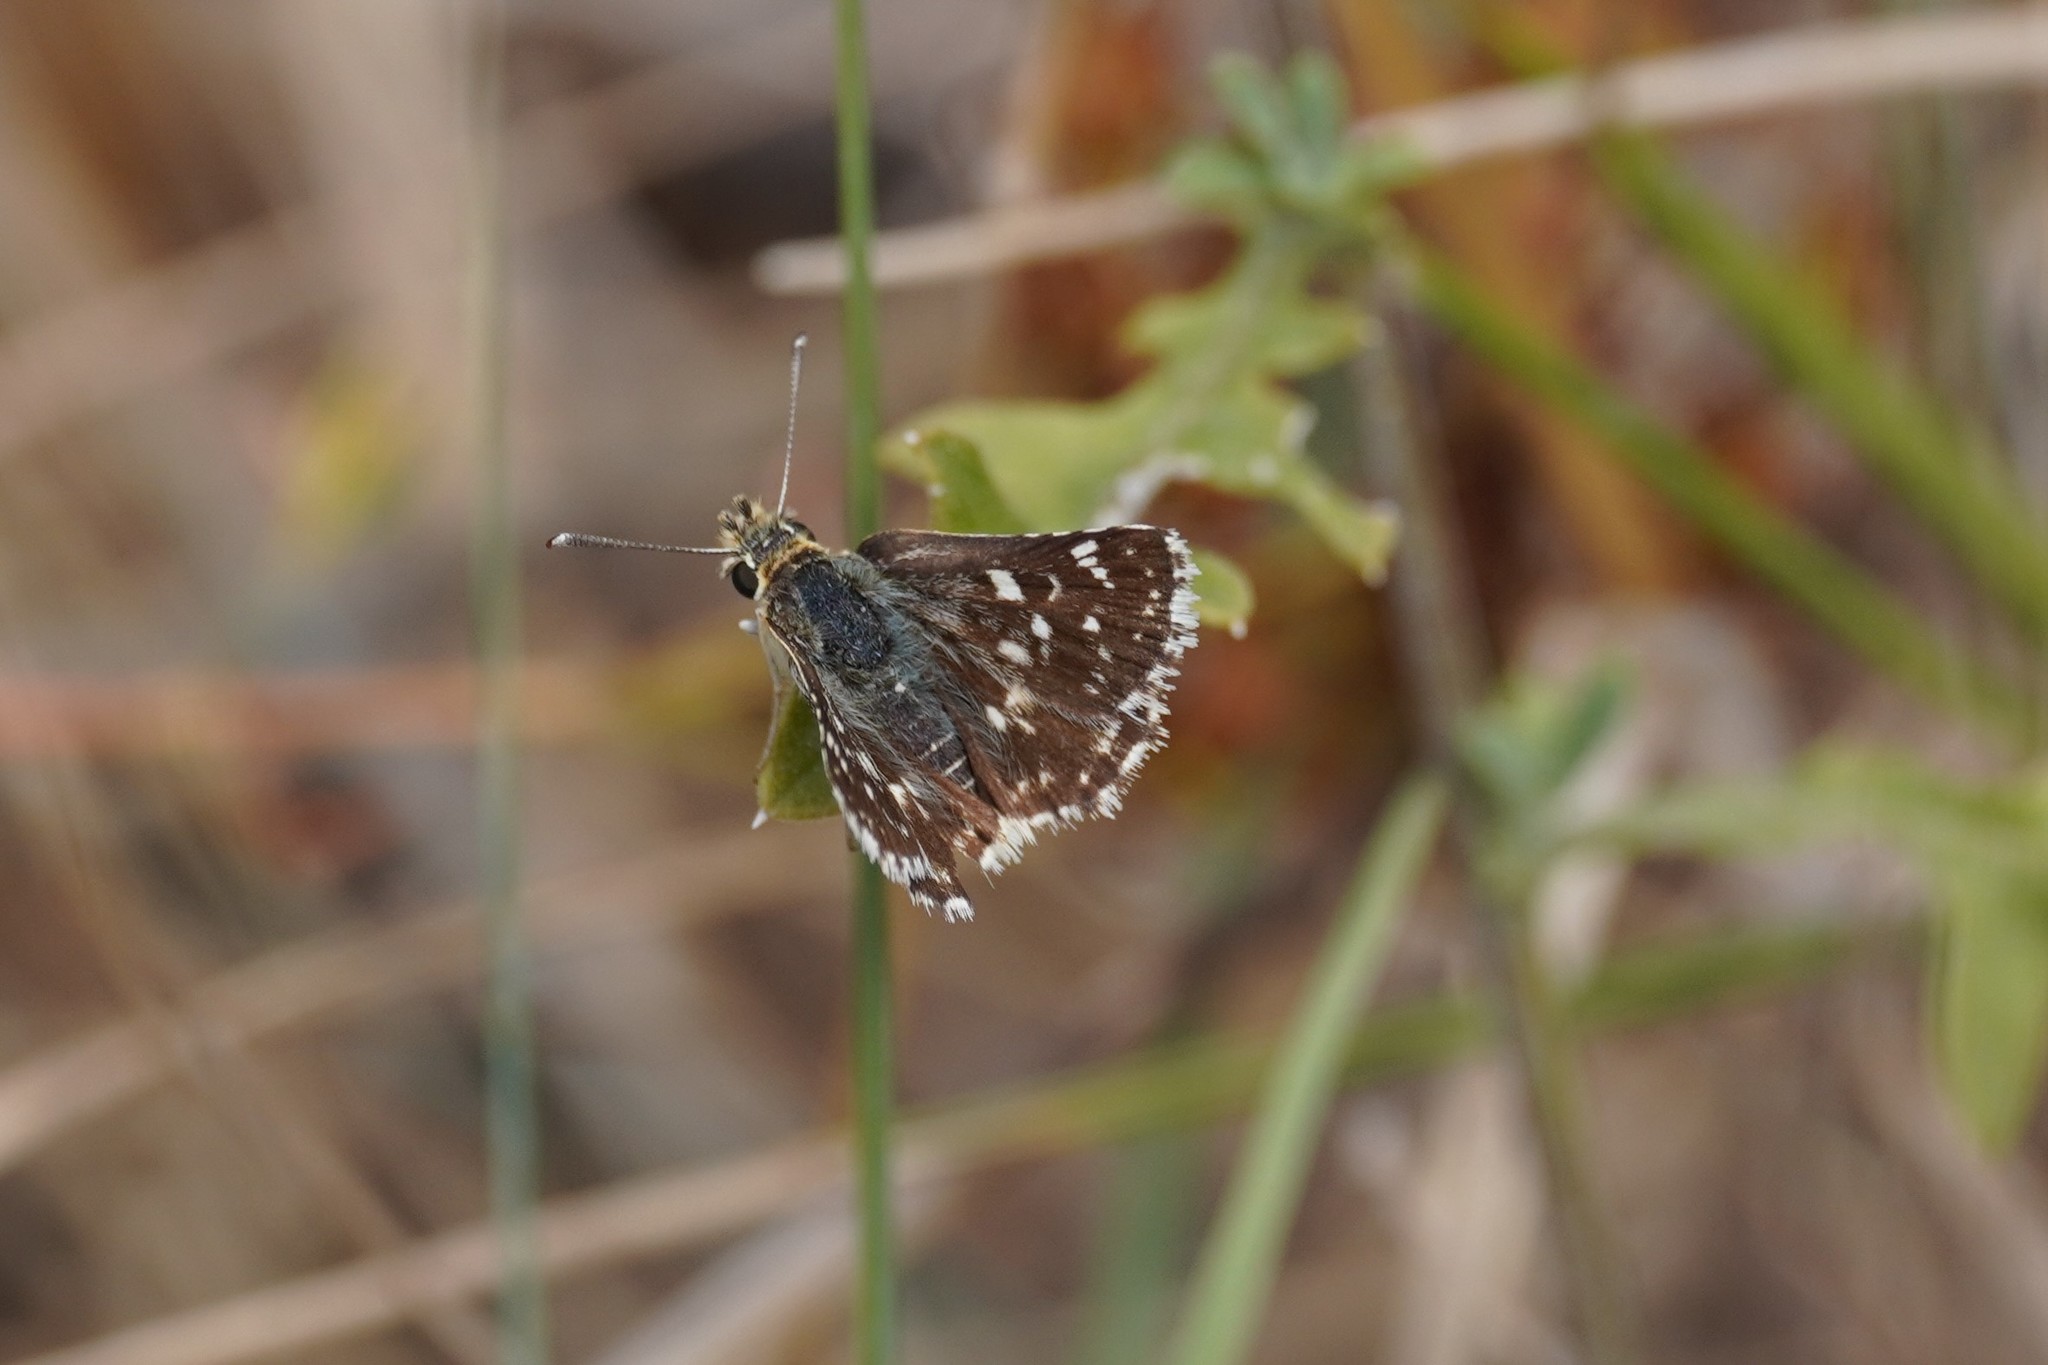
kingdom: Animalia
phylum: Arthropoda
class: Insecta
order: Lepidoptera
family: Hesperiidae
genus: Spialia
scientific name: Spialia sertorius
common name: Red underwing skipper
